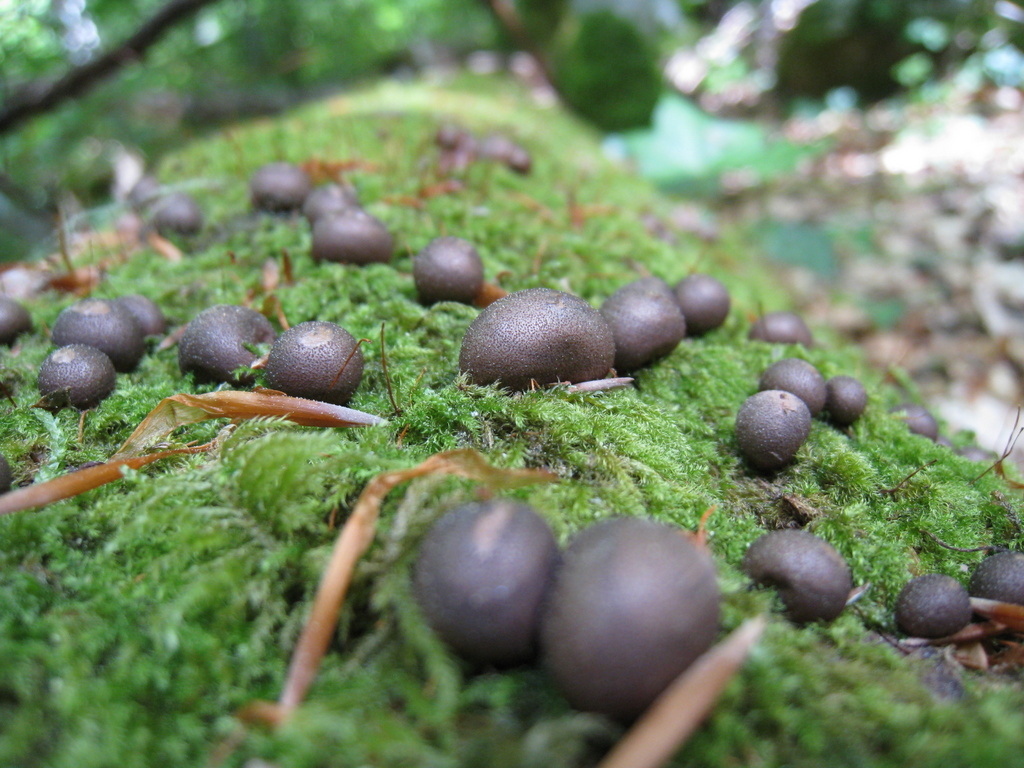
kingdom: Protozoa
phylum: Mycetozoa
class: Myxomycetes
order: Cribrariales
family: Tubiferaceae
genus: Lycogala
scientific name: Lycogala epidendrum
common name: Wolf's milk
